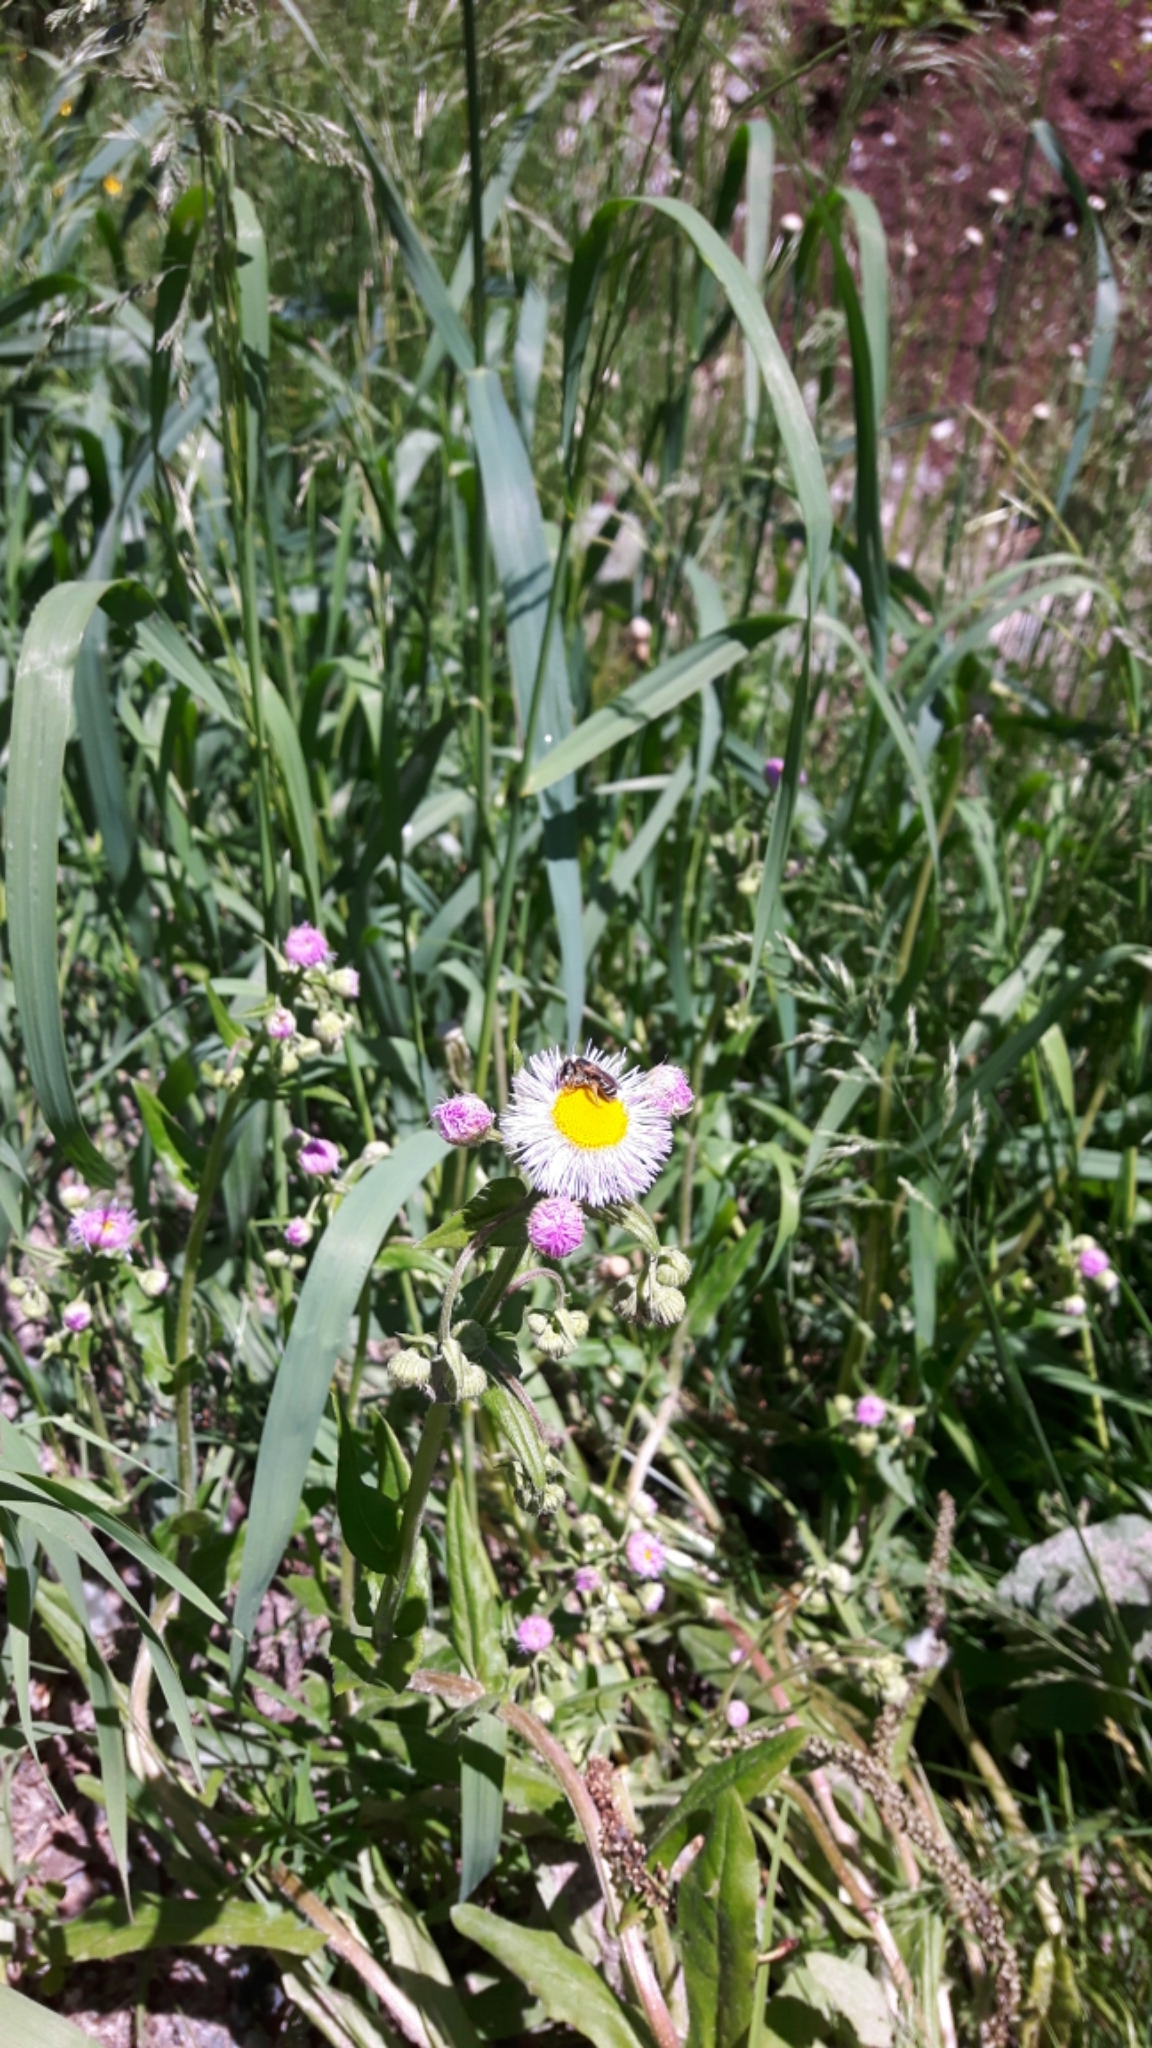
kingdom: Plantae
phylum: Tracheophyta
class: Magnoliopsida
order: Asterales
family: Asteraceae
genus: Erigeron
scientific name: Erigeron philadelphicus
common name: Robin's-plantain
